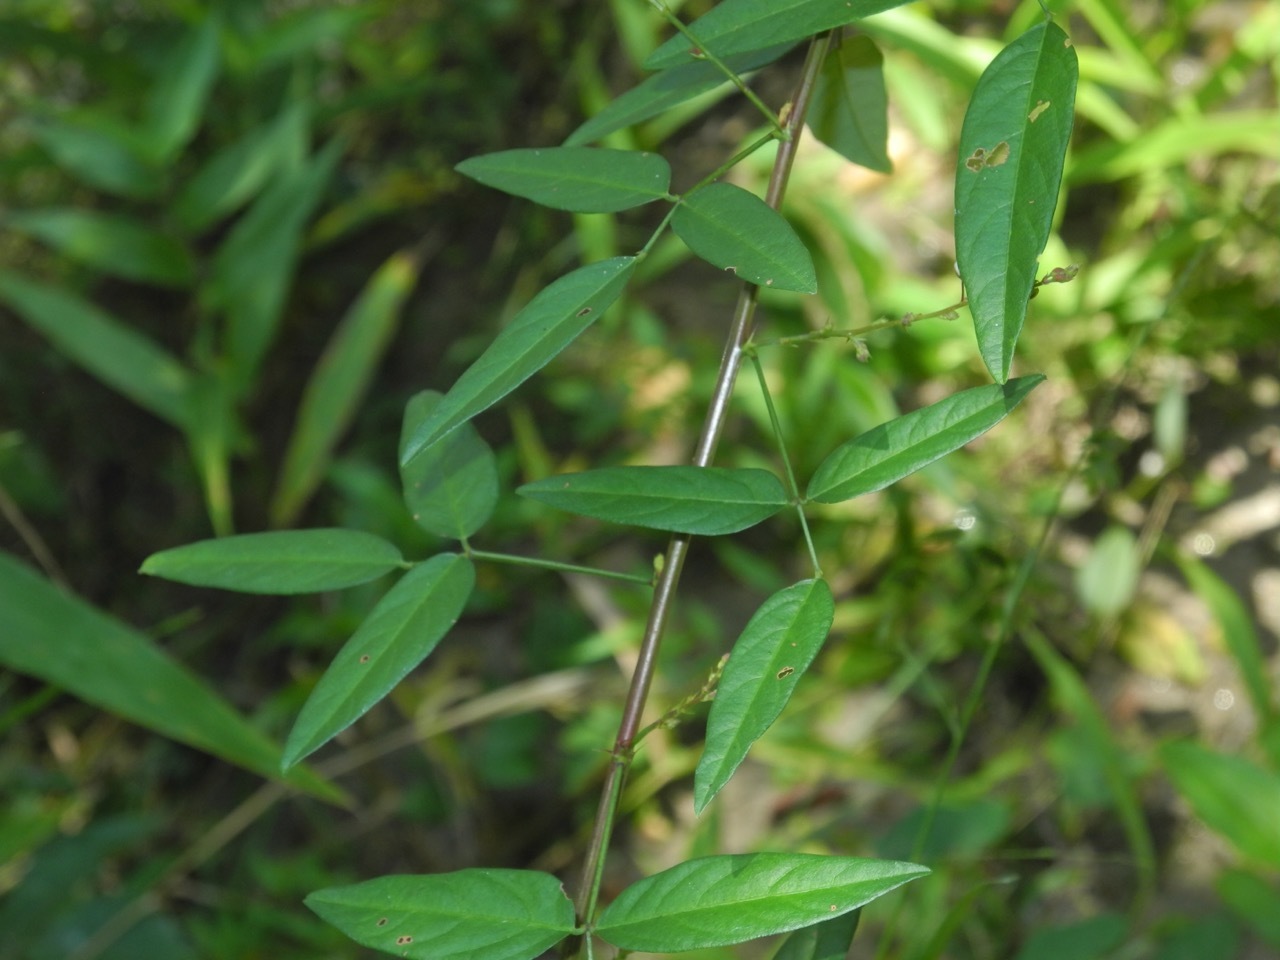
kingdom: Plantae
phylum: Tracheophyta
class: Magnoliopsida
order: Fabales
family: Fabaceae
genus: Desmodium
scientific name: Desmodium paniculatum
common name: Panicled tick-clover
